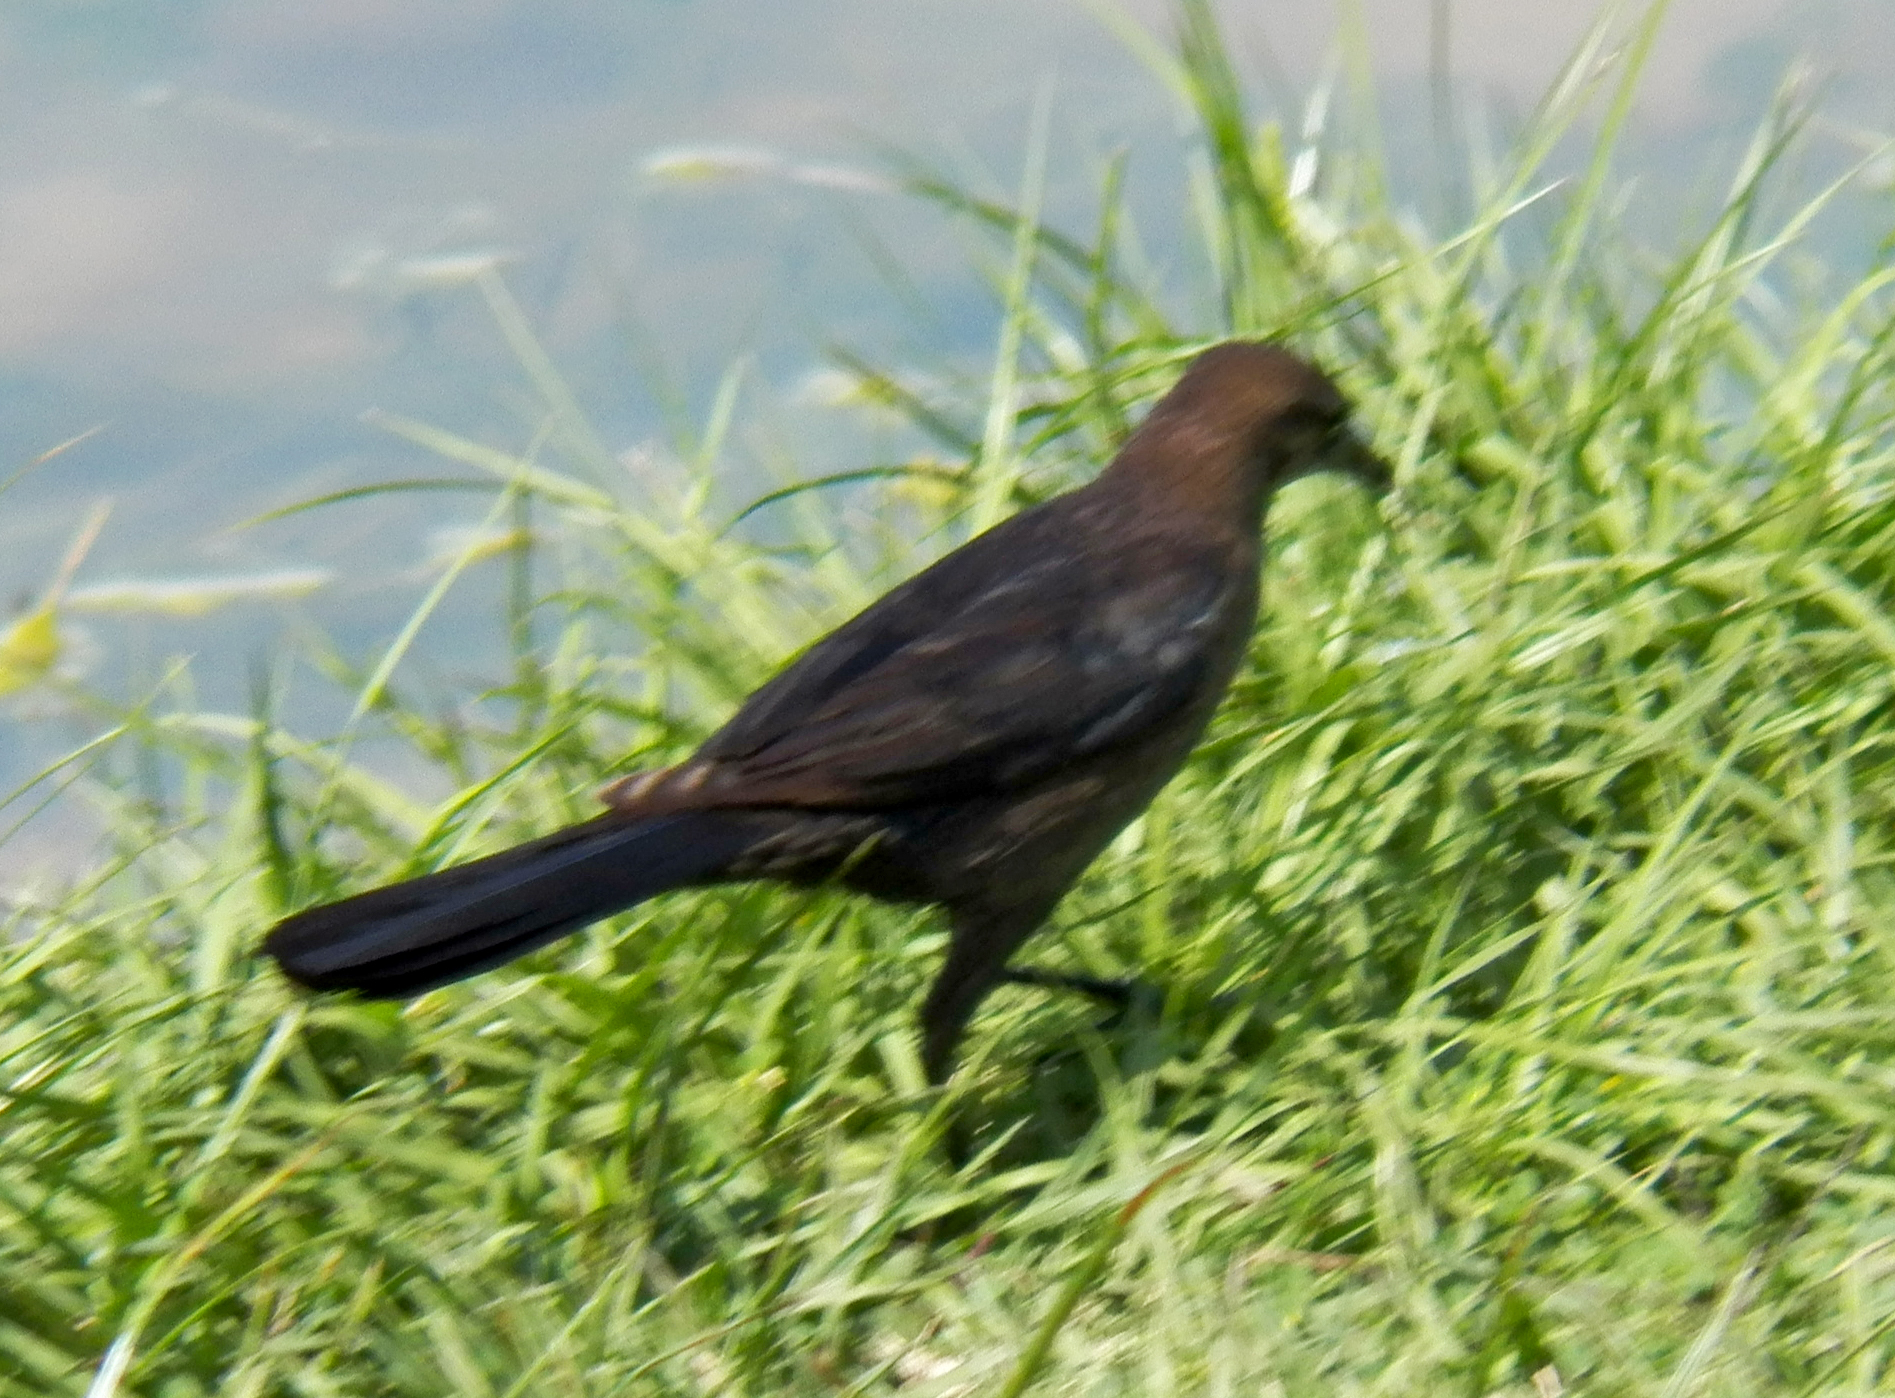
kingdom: Animalia
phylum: Chordata
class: Aves
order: Passeriformes
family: Icteridae
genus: Quiscalus
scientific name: Quiscalus mexicanus
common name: Great-tailed grackle
